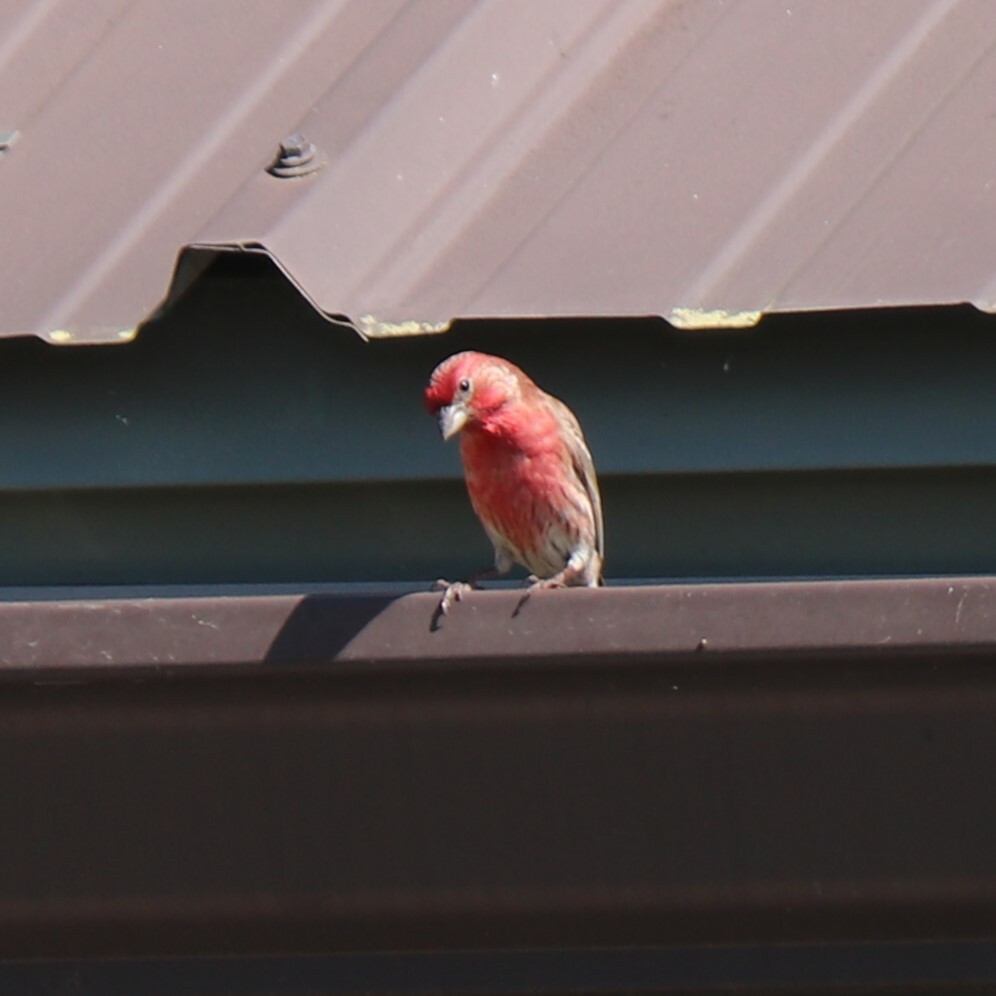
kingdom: Animalia
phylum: Chordata
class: Aves
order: Passeriformes
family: Fringillidae
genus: Haemorhous
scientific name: Haemorhous mexicanus
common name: House finch
